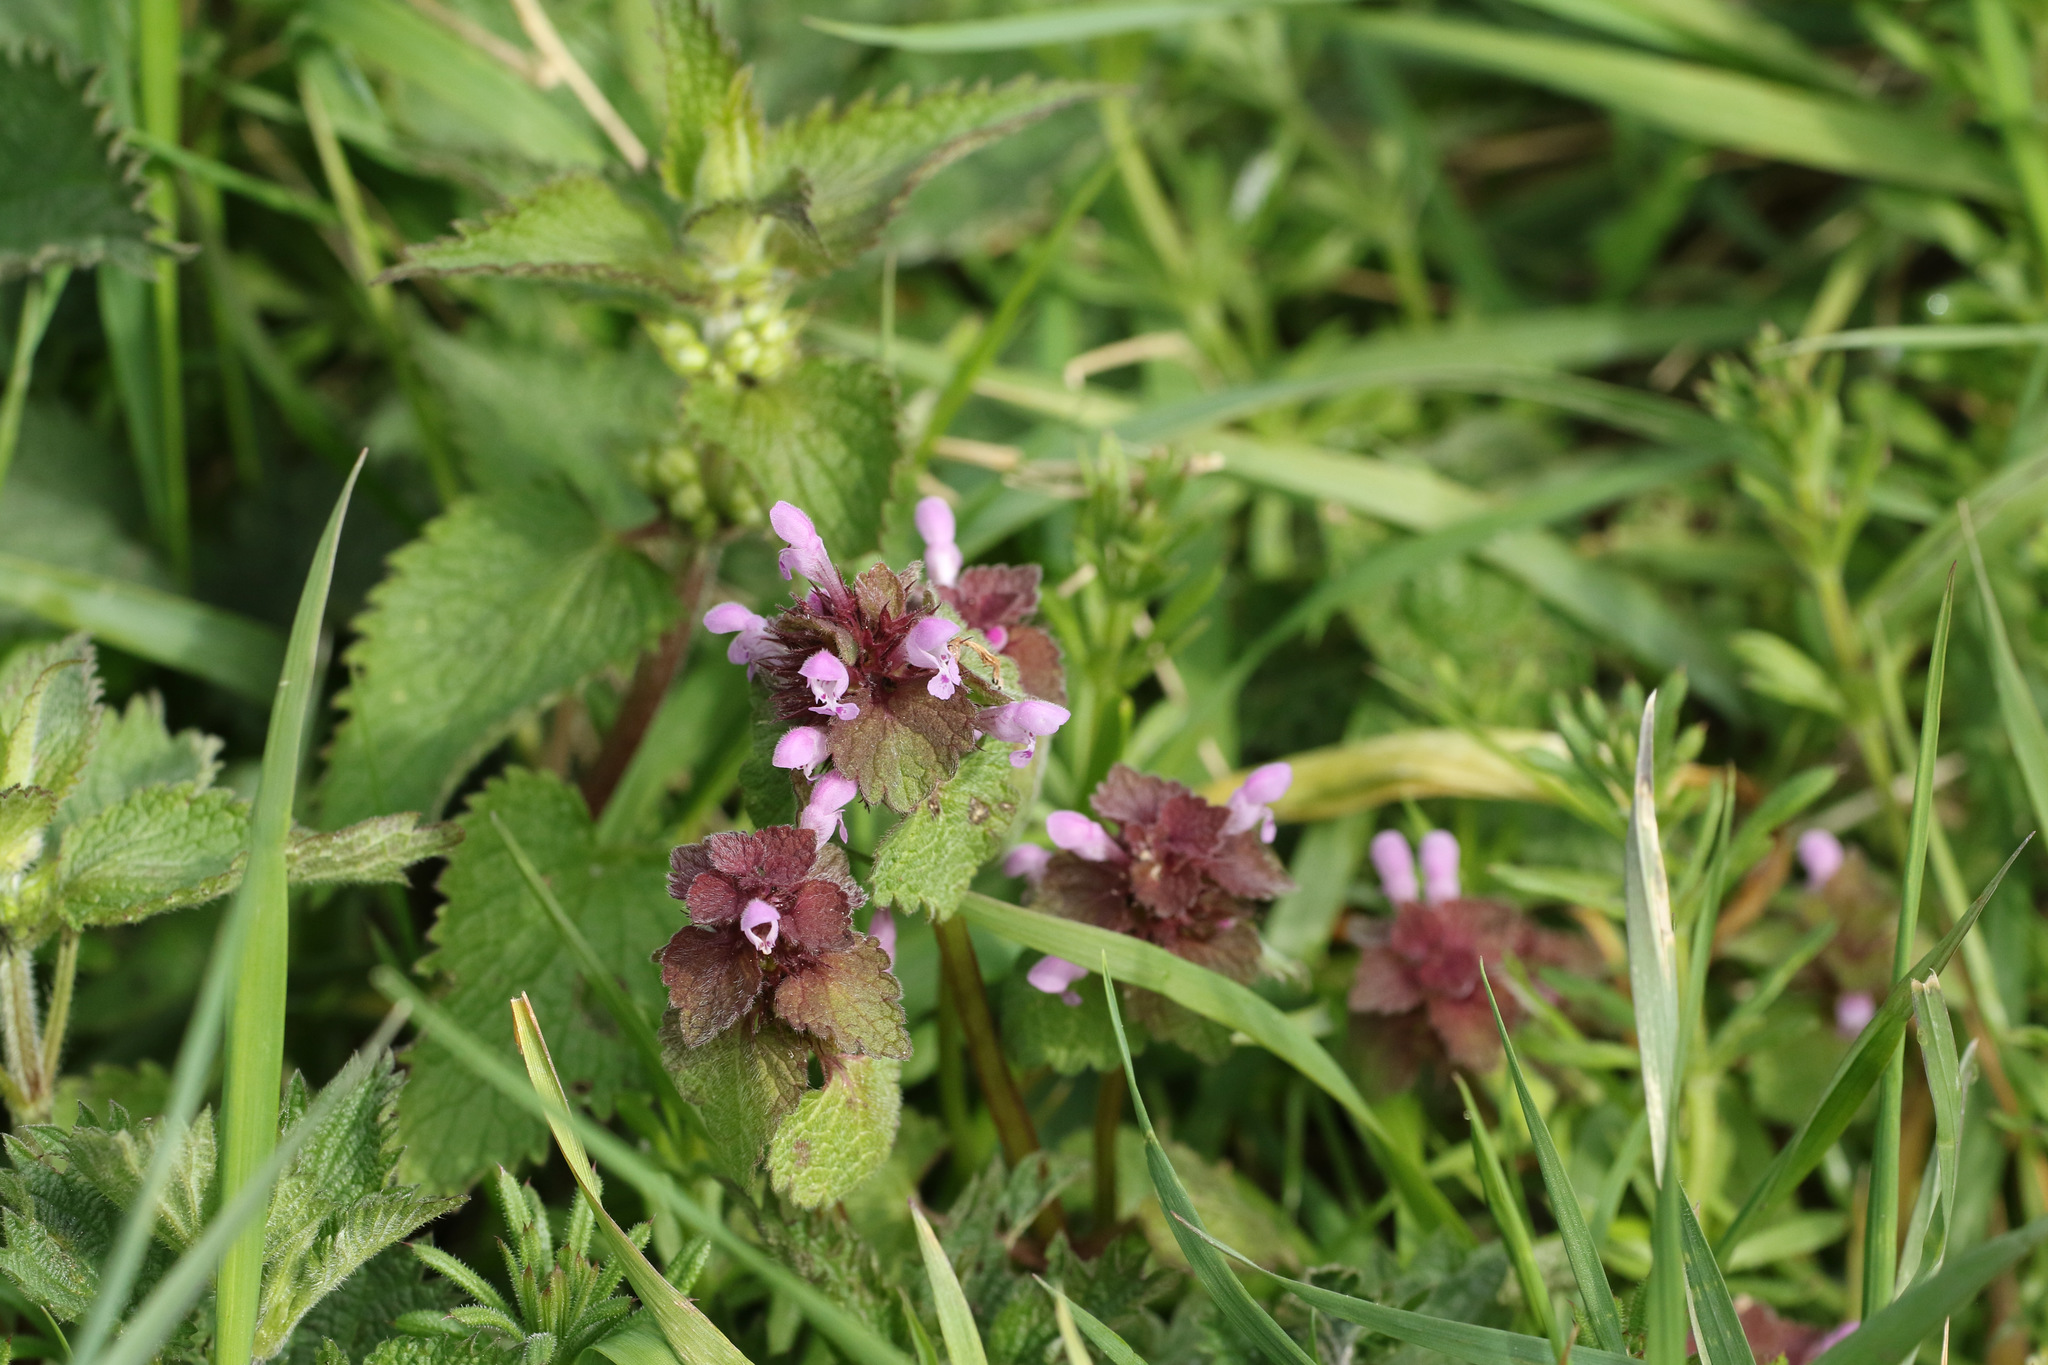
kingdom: Plantae
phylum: Tracheophyta
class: Magnoliopsida
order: Lamiales
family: Lamiaceae
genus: Lamium
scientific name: Lamium purpureum
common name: Red dead-nettle
